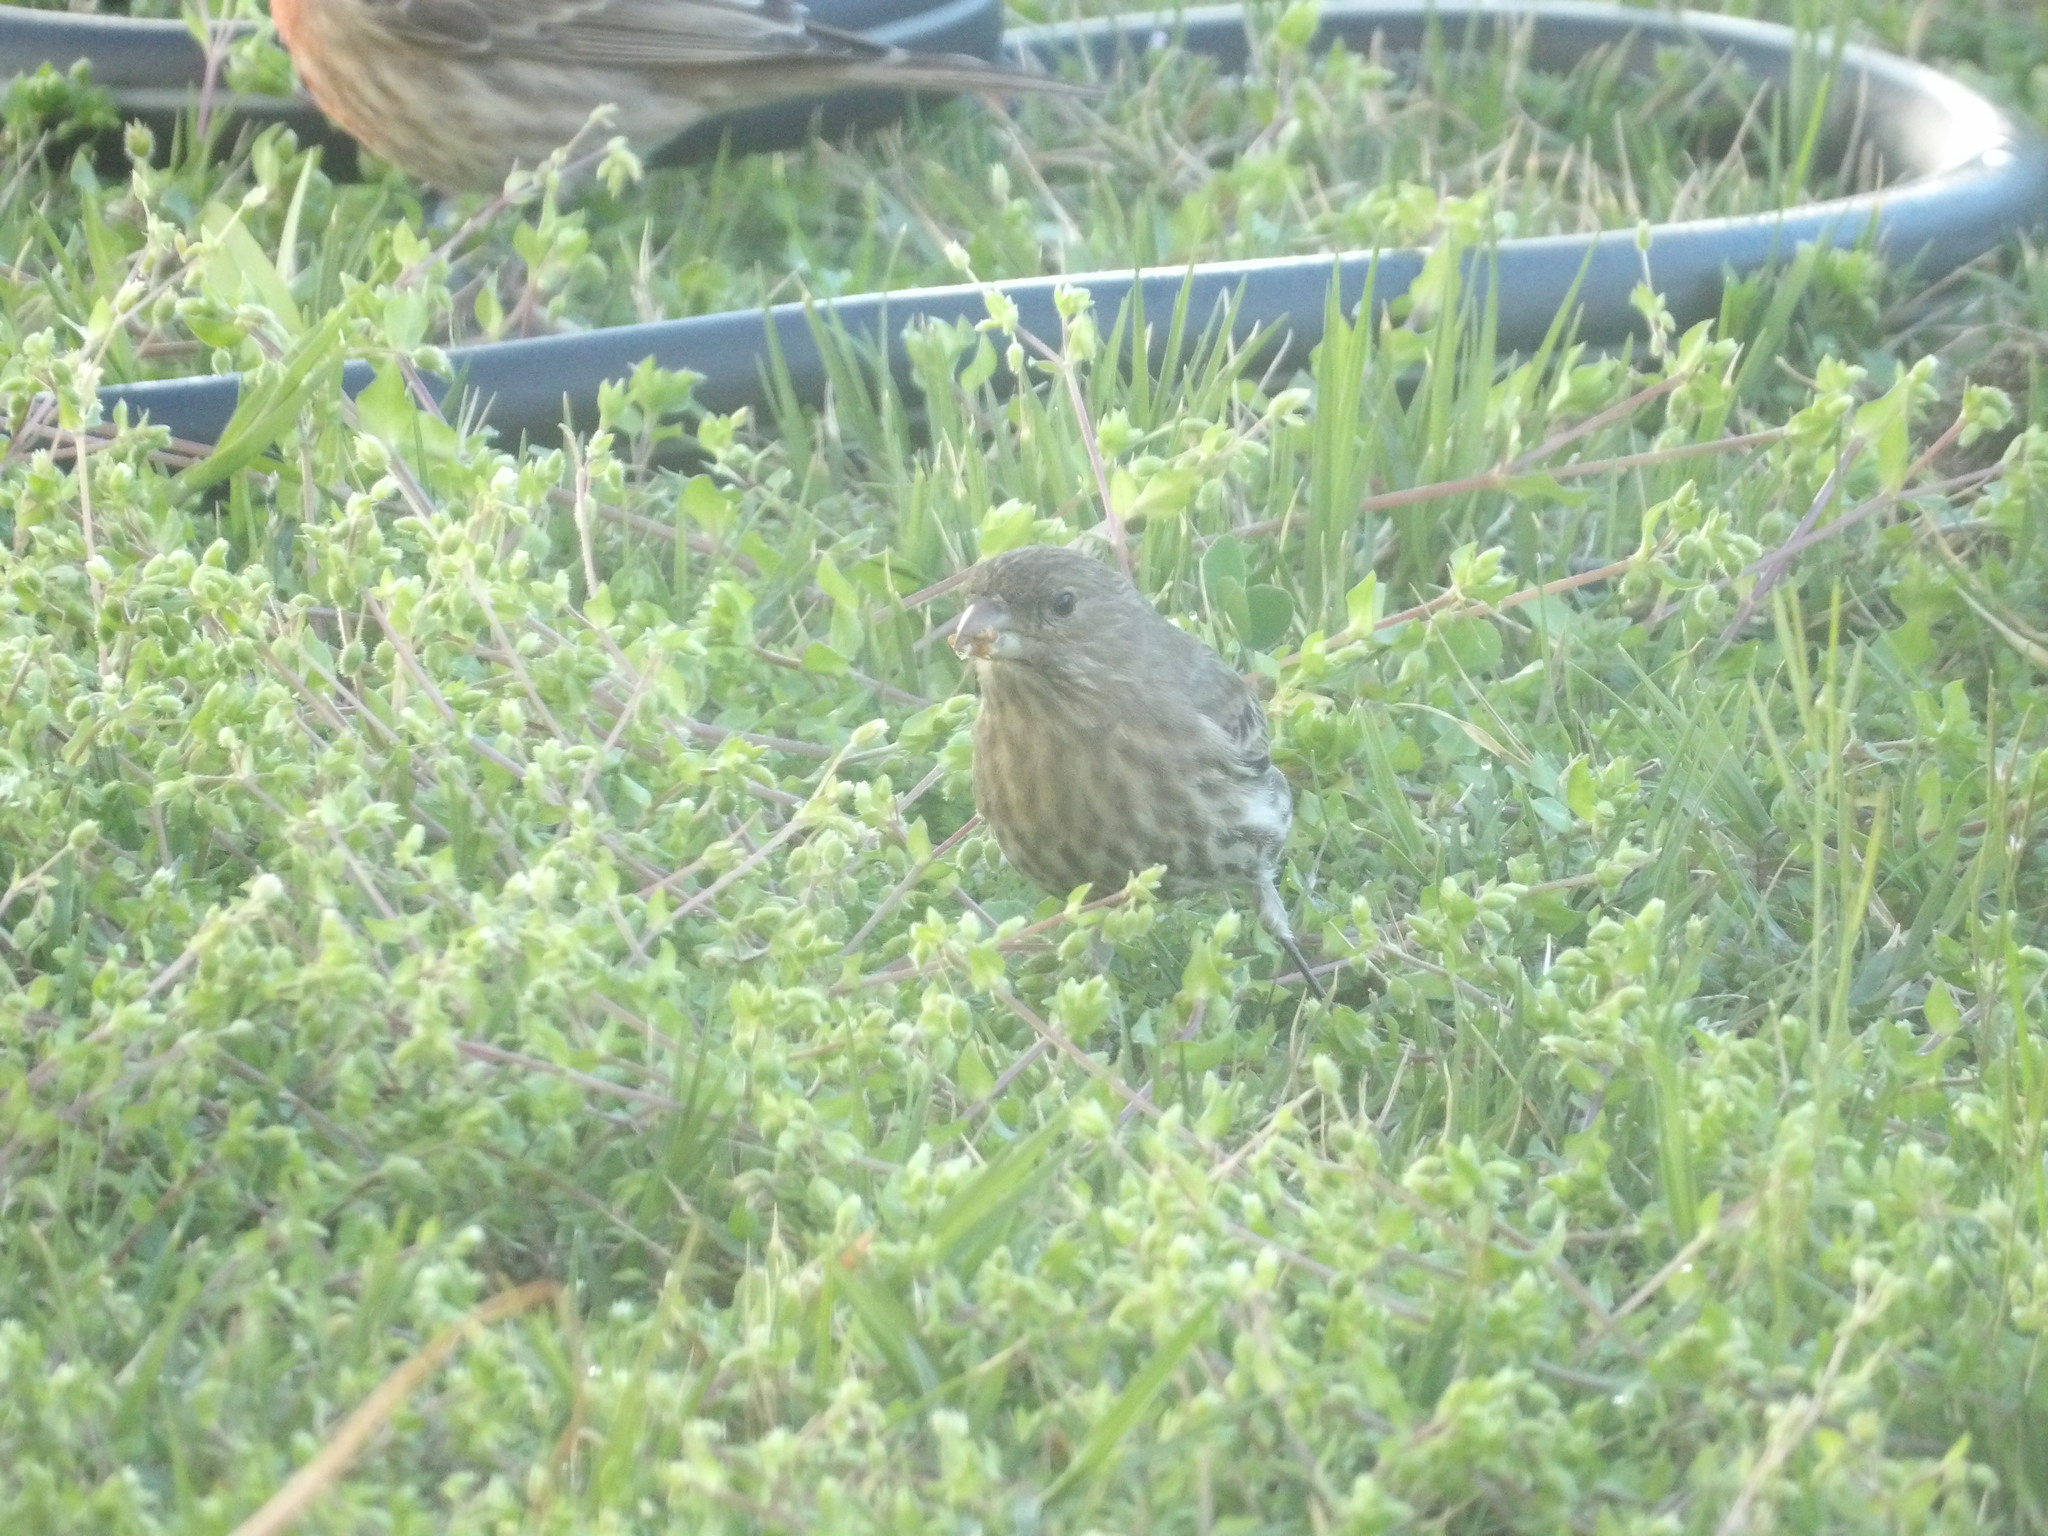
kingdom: Animalia
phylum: Chordata
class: Aves
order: Passeriformes
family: Fringillidae
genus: Haemorhous
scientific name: Haemorhous mexicanus
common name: House finch
